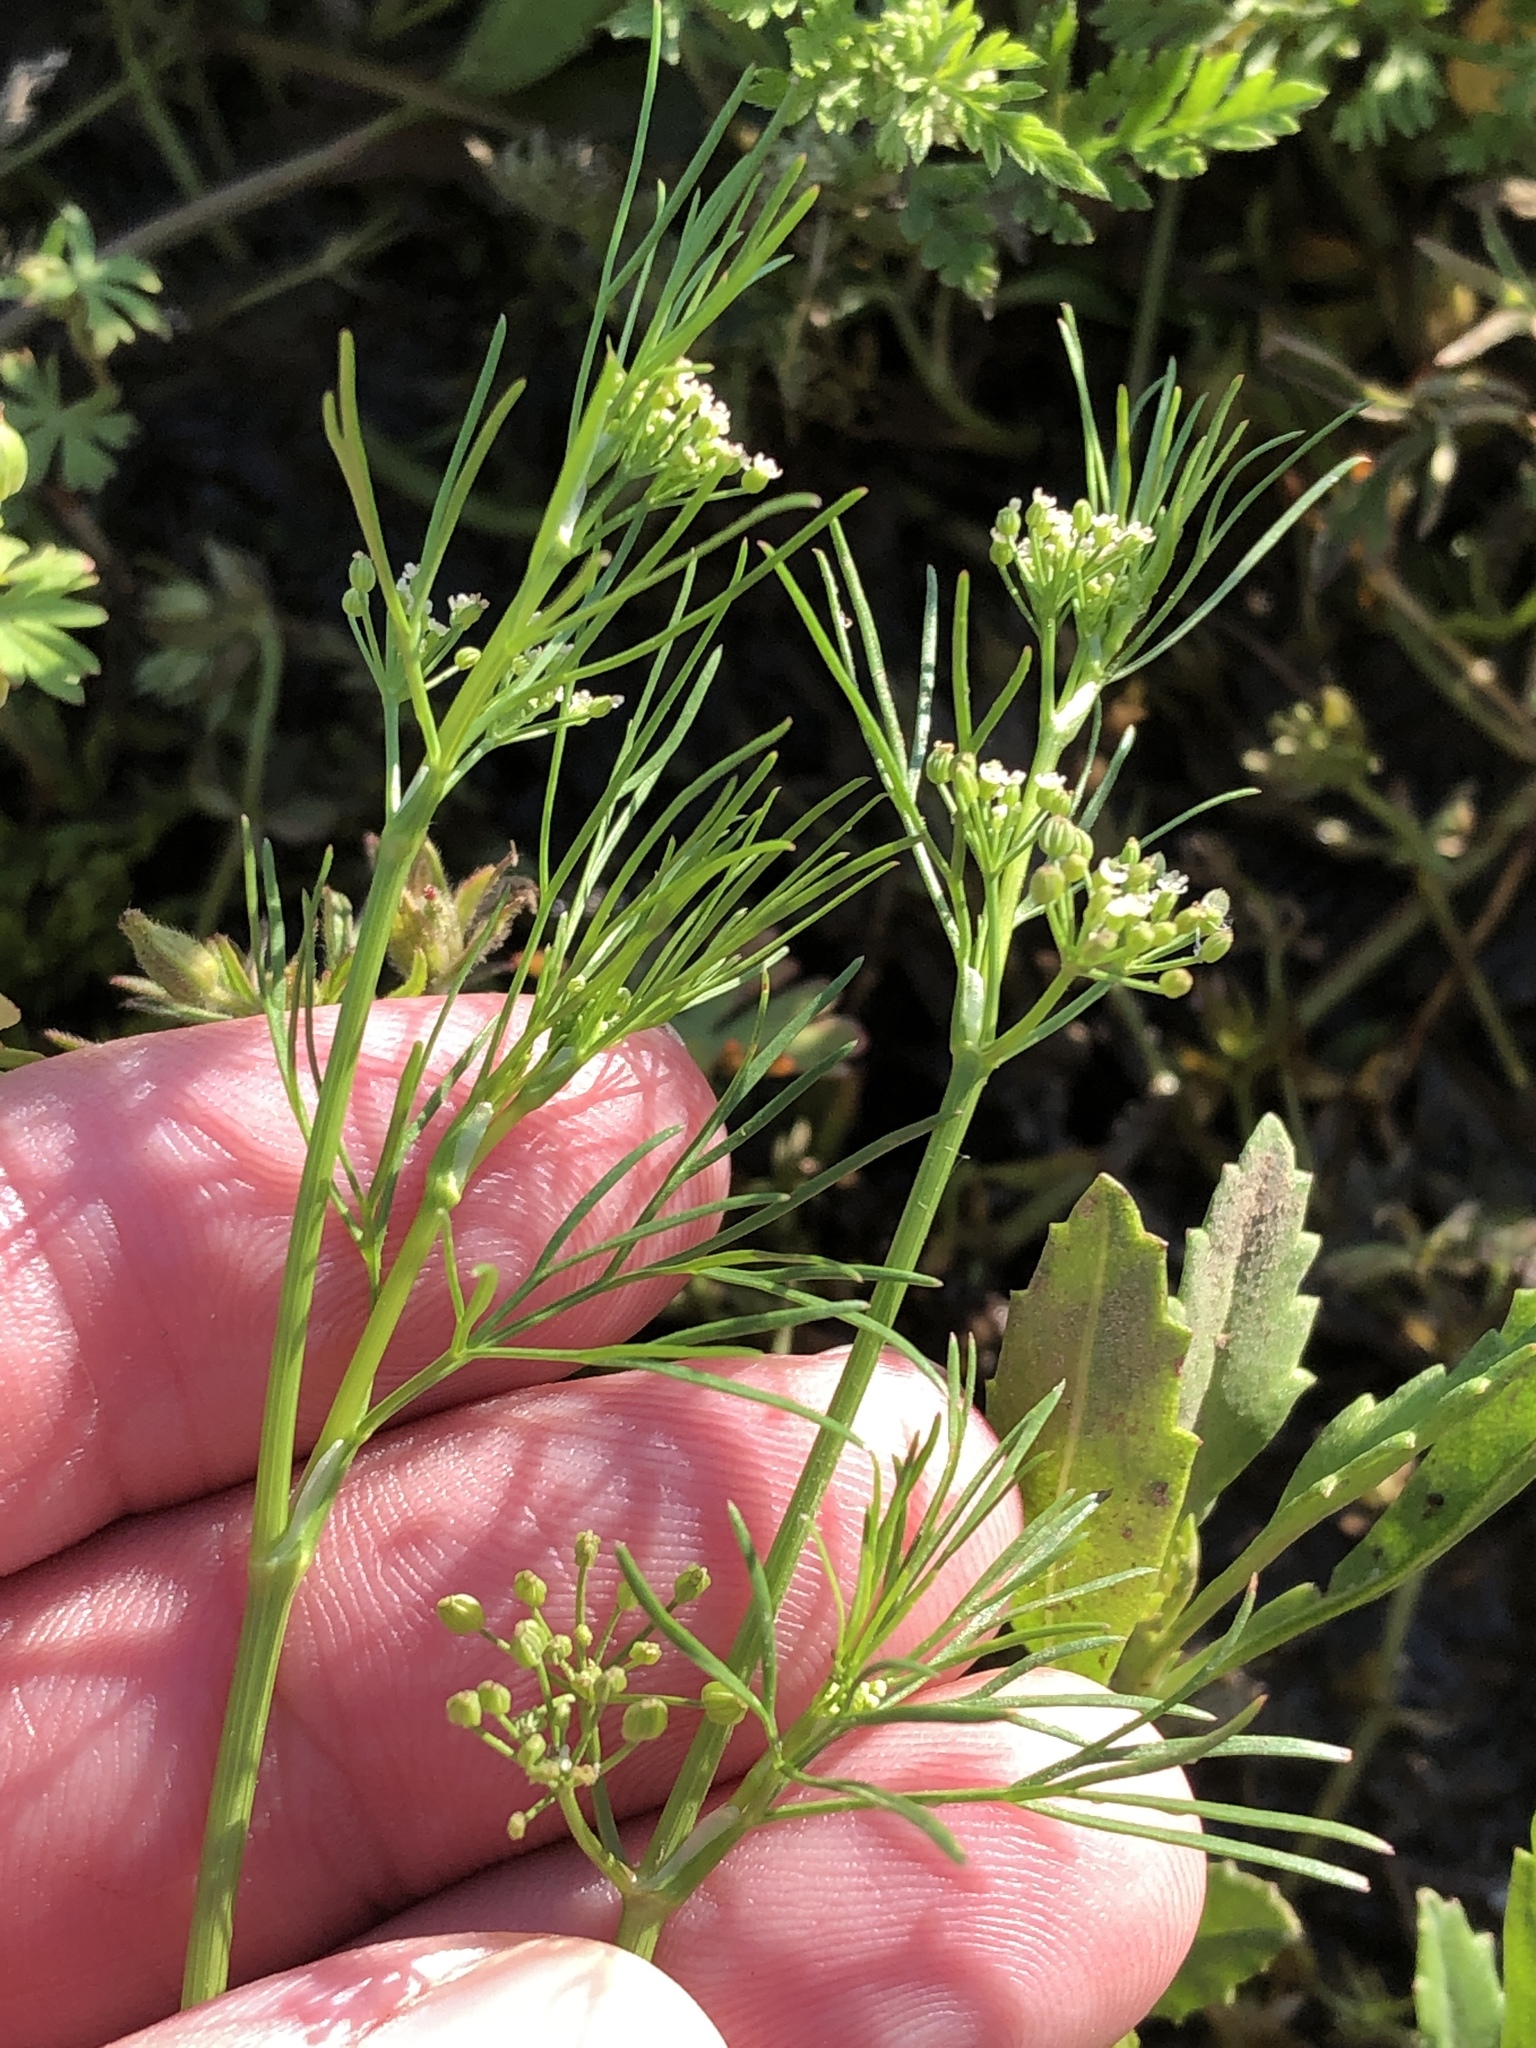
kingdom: Plantae
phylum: Tracheophyta
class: Magnoliopsida
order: Apiales
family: Apiaceae
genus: Cyclospermum
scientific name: Cyclospermum leptophyllum
